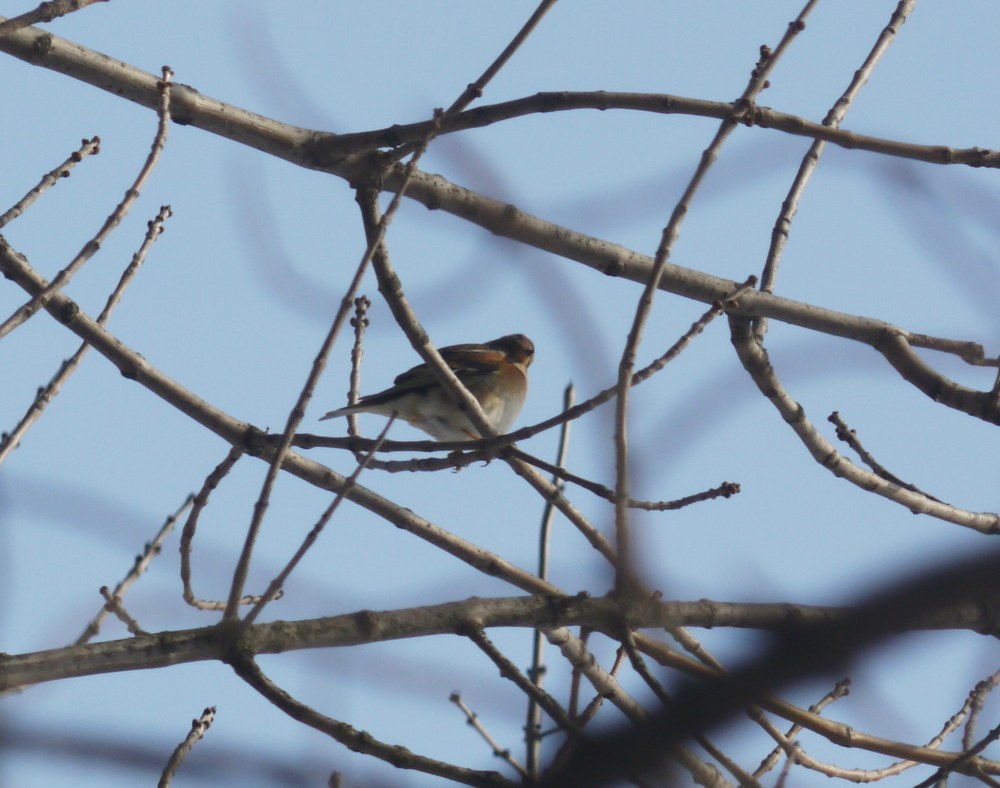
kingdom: Animalia
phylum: Chordata
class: Aves
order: Passeriformes
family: Fringillidae
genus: Fringilla
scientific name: Fringilla montifringilla
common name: Brambling
